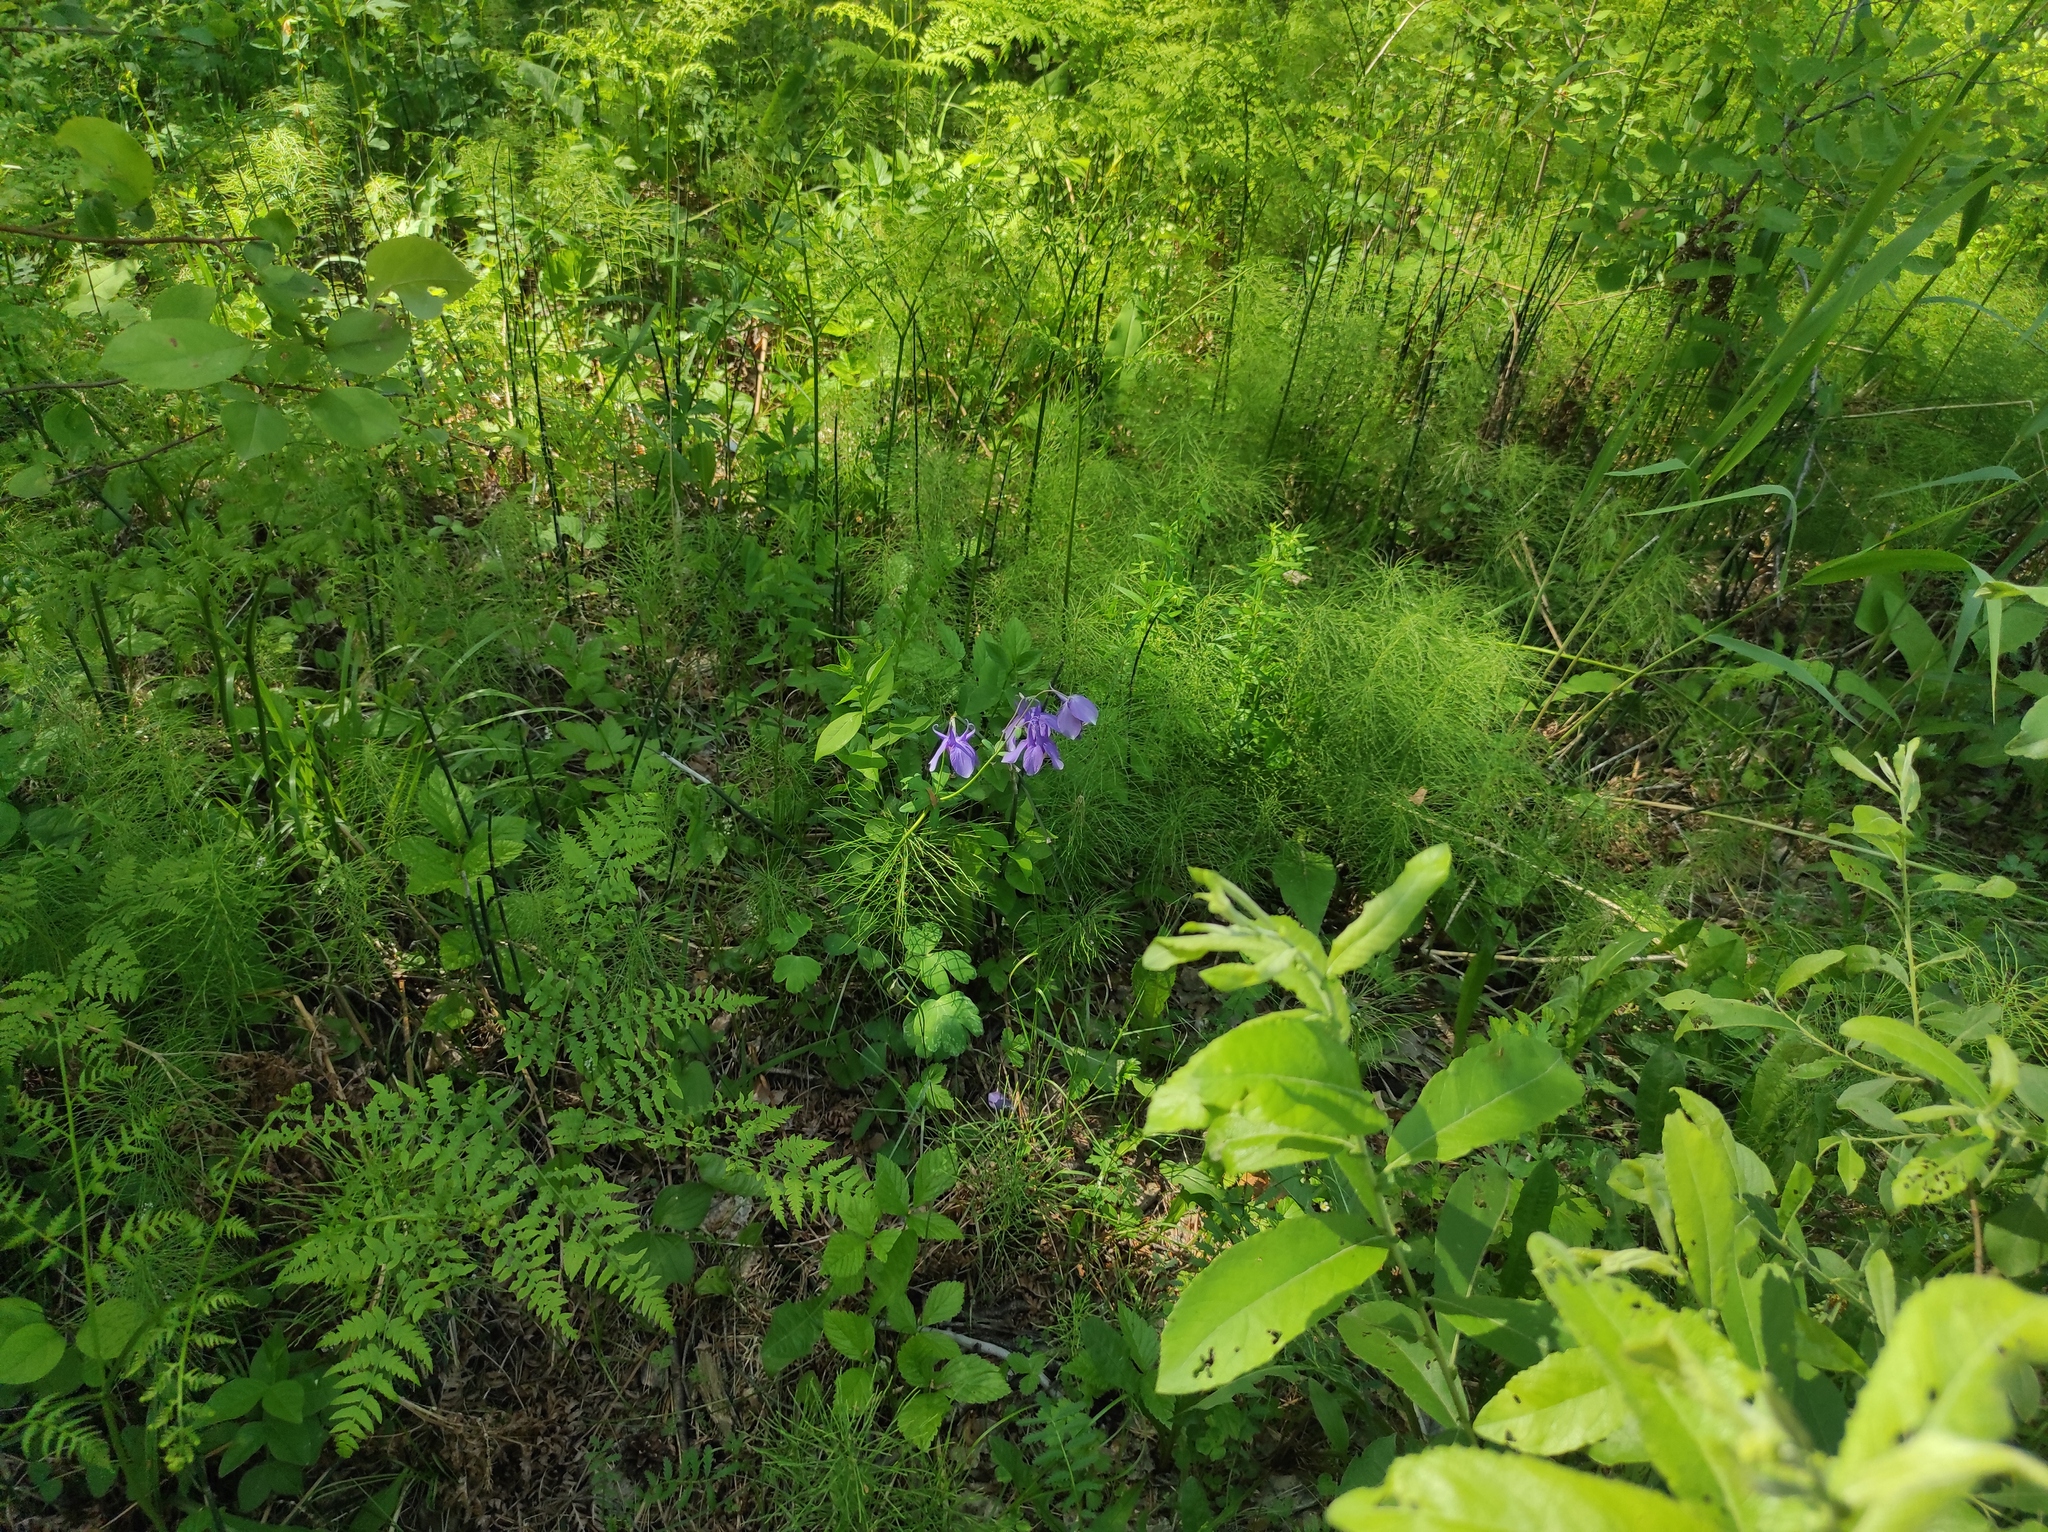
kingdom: Plantae
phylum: Tracheophyta
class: Magnoliopsida
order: Ranunculales
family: Ranunculaceae
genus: Aquilegia
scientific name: Aquilegia sibirica
